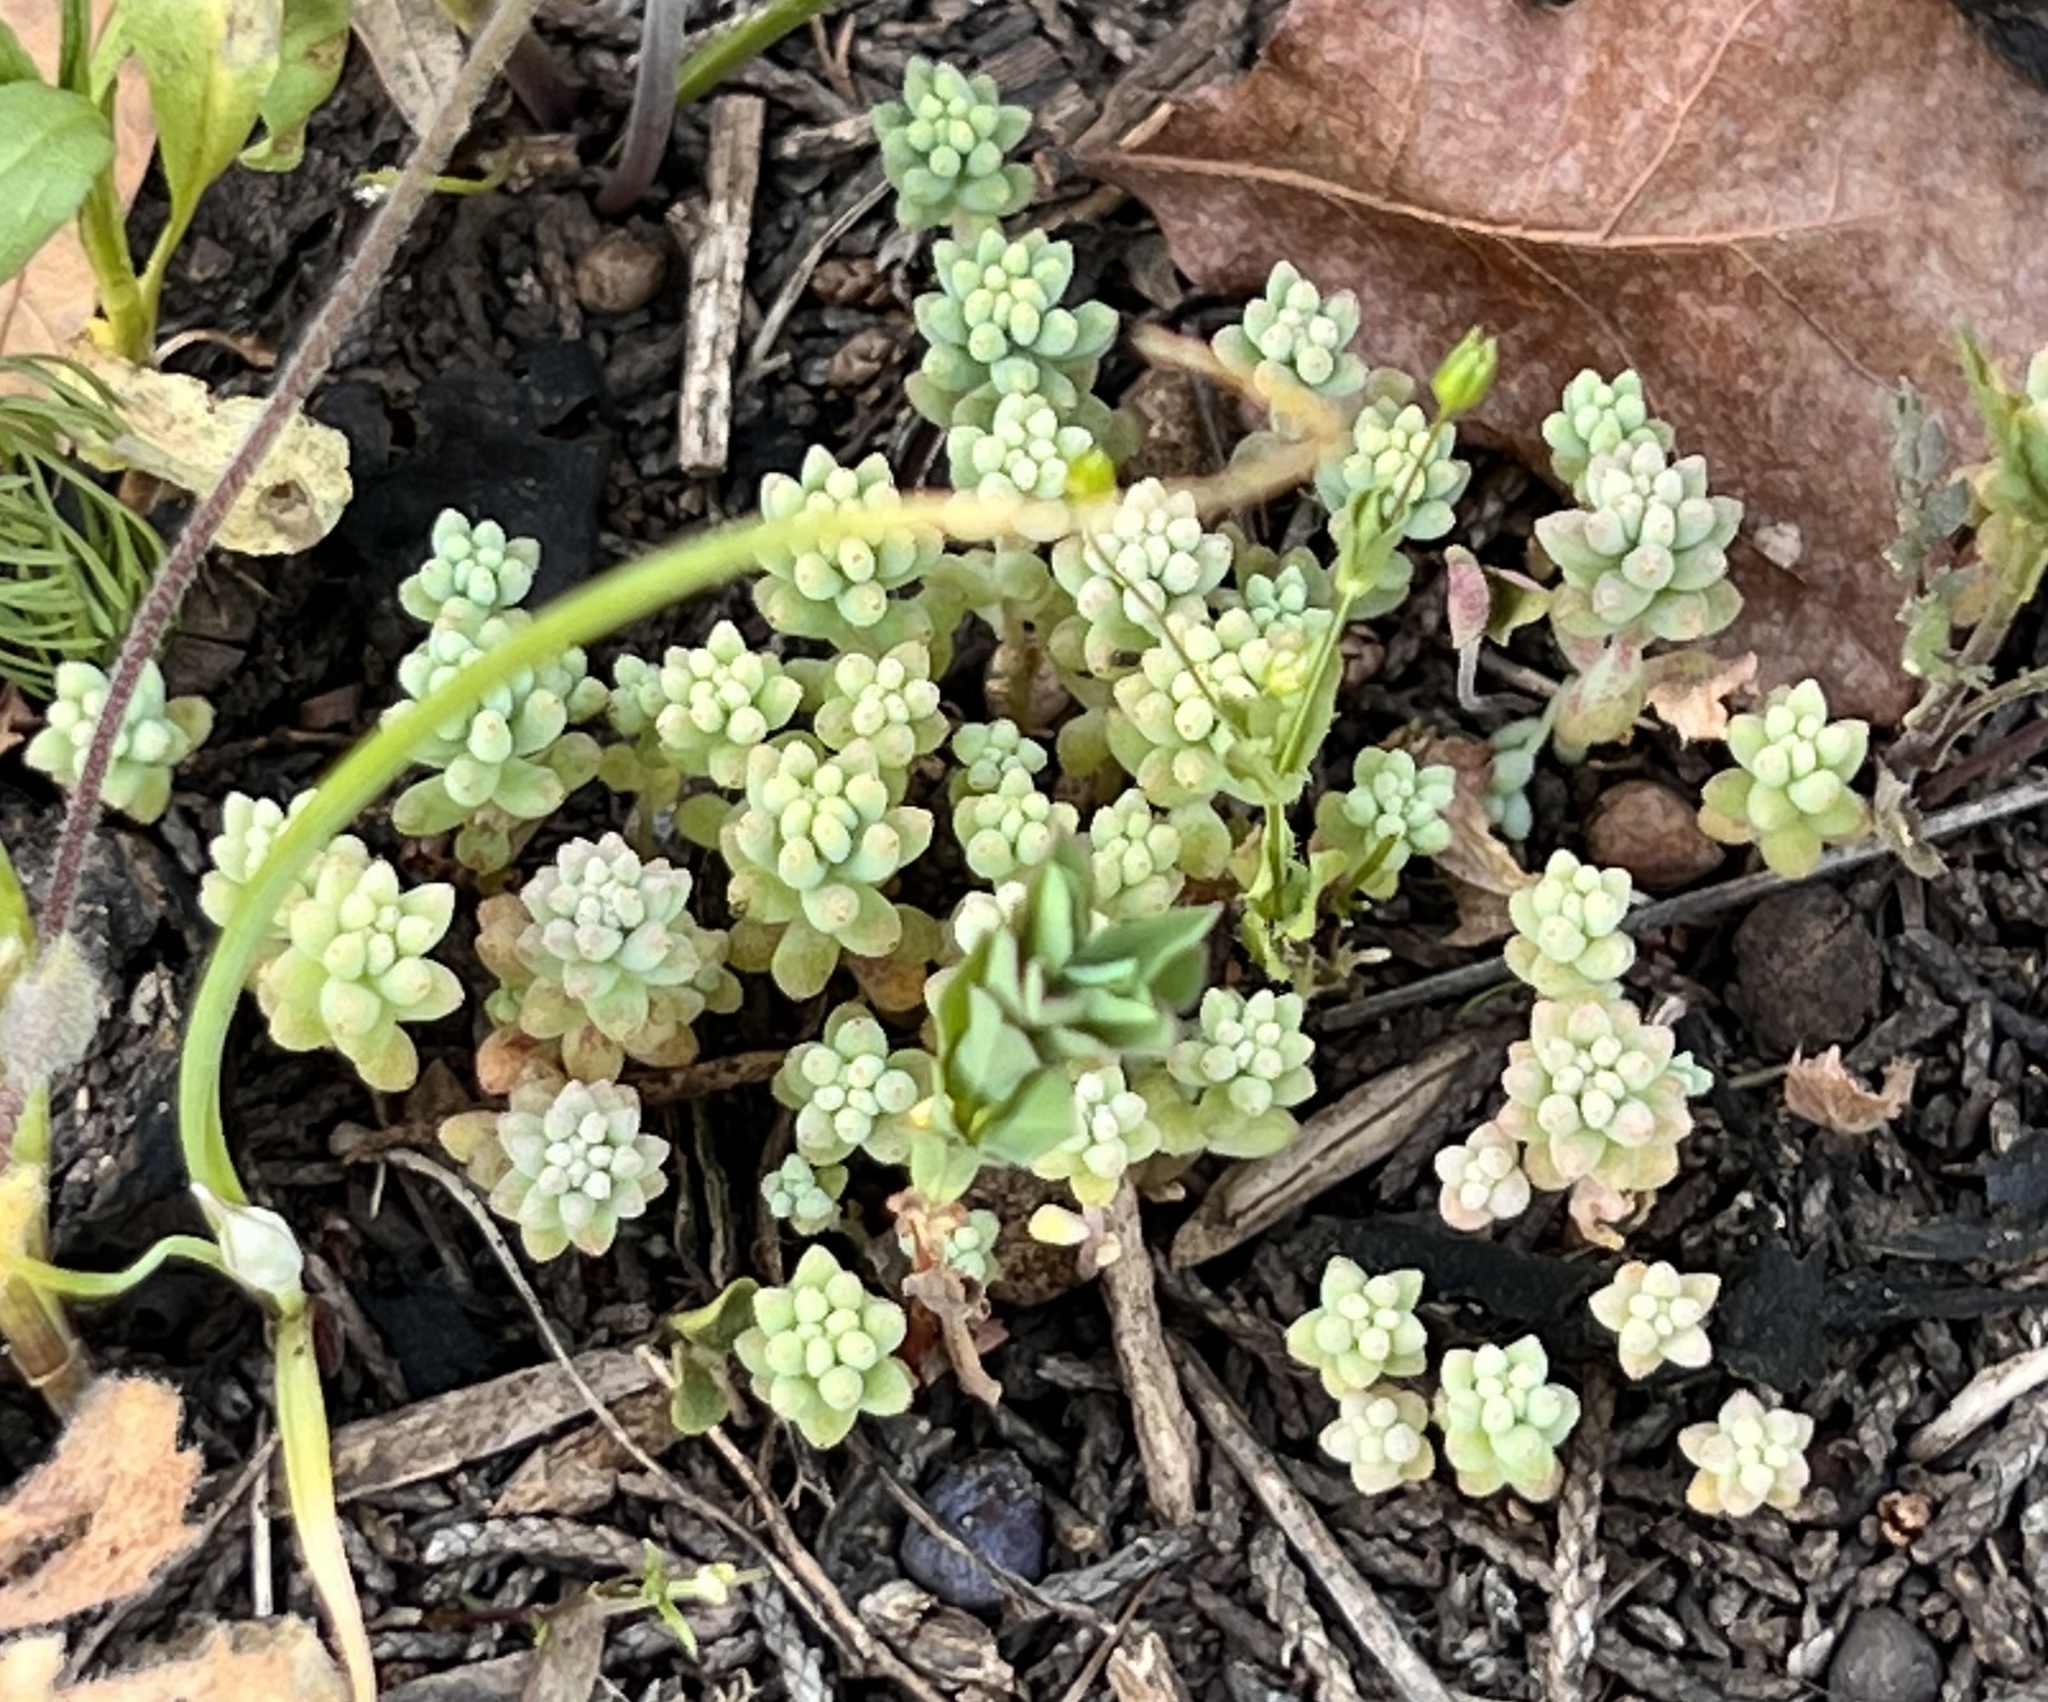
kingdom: Plantae
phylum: Tracheophyta
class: Magnoliopsida
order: Saxifragales
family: Crassulaceae
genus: Sedum
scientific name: Sedum nuttallii
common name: Yellow stonecrop
